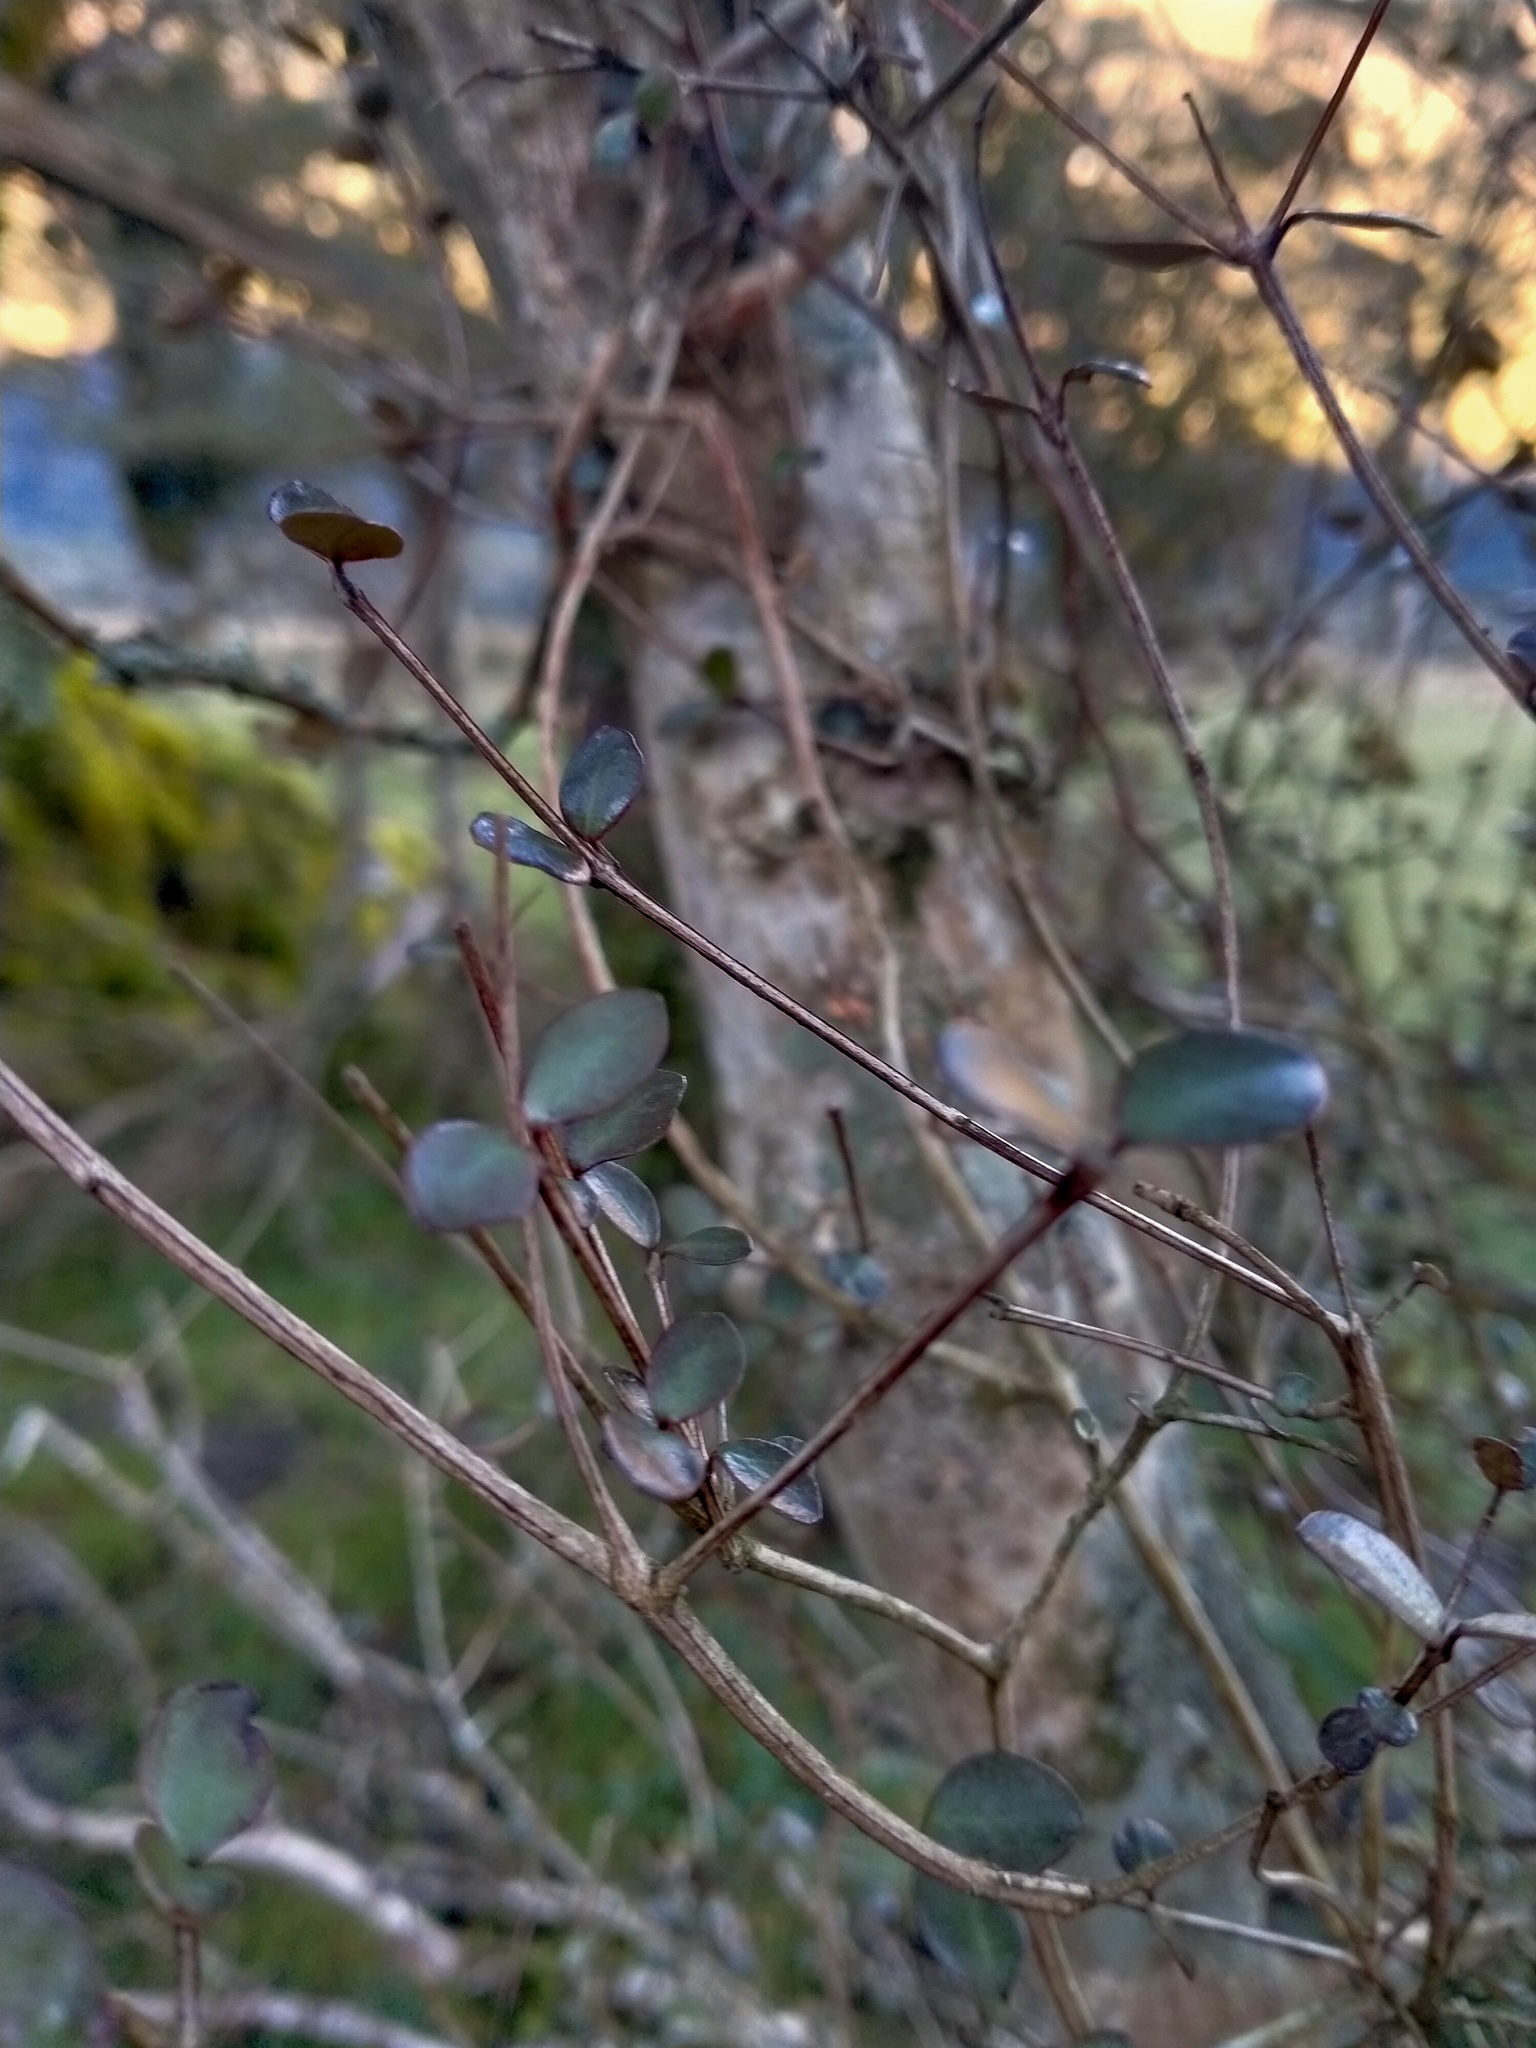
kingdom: Plantae
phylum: Tracheophyta
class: Magnoliopsida
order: Myrtales
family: Myrtaceae
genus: Neomyrtus
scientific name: Neomyrtus pedunculata
